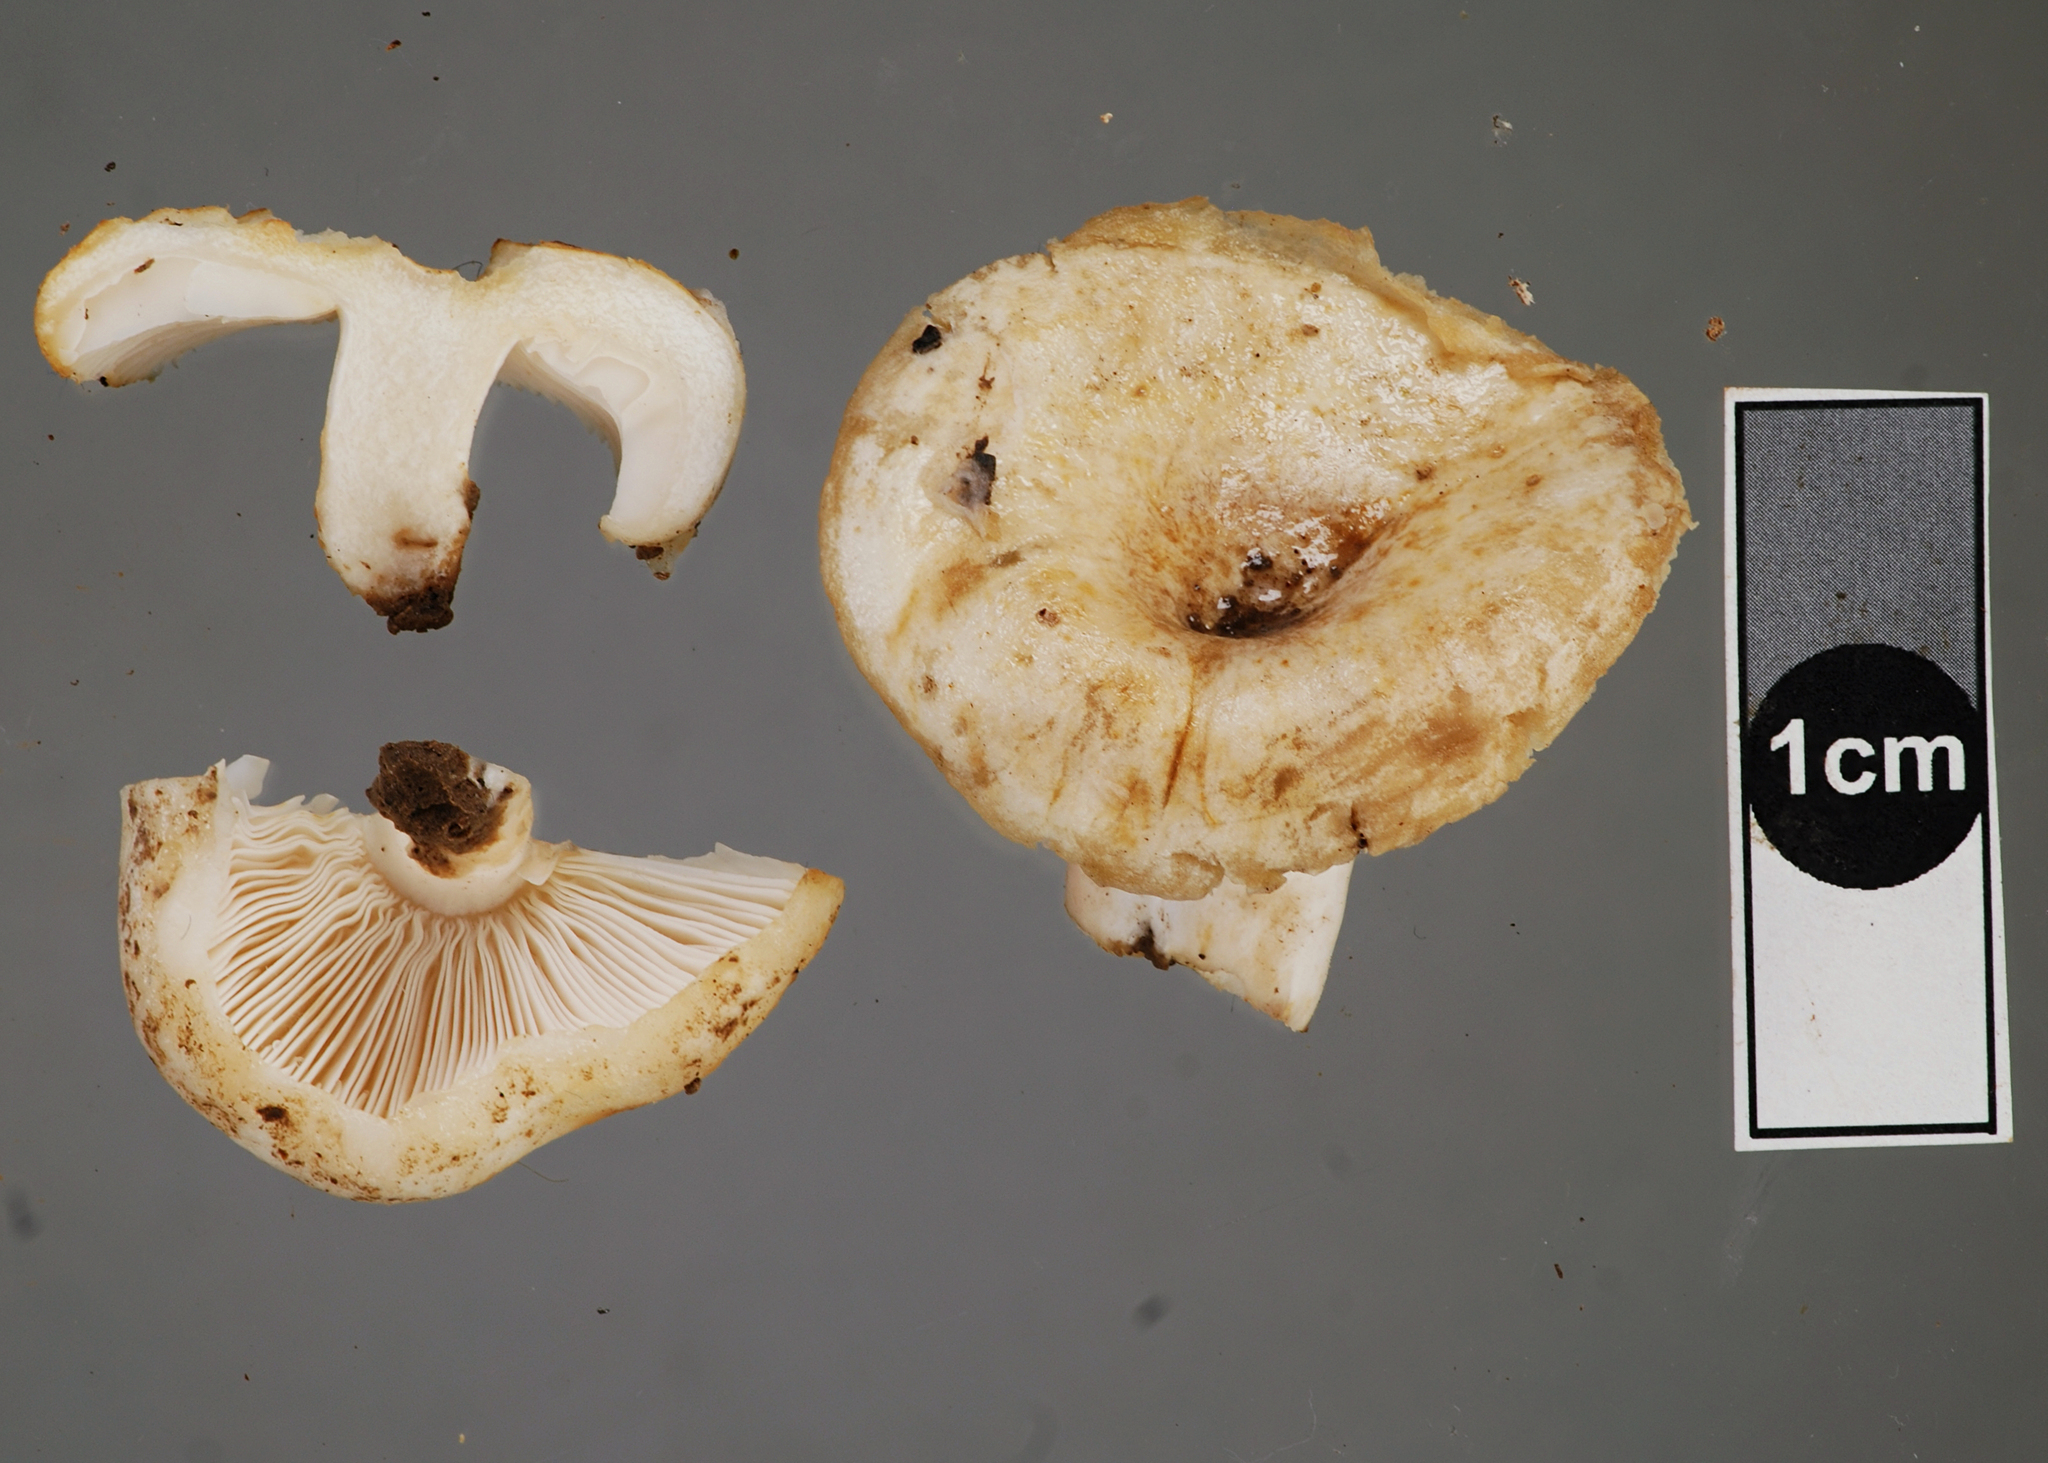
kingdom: Fungi
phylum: Basidiomycota
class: Agaricomycetes
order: Russulales
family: Russulaceae
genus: Russula
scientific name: Russula allochroa
